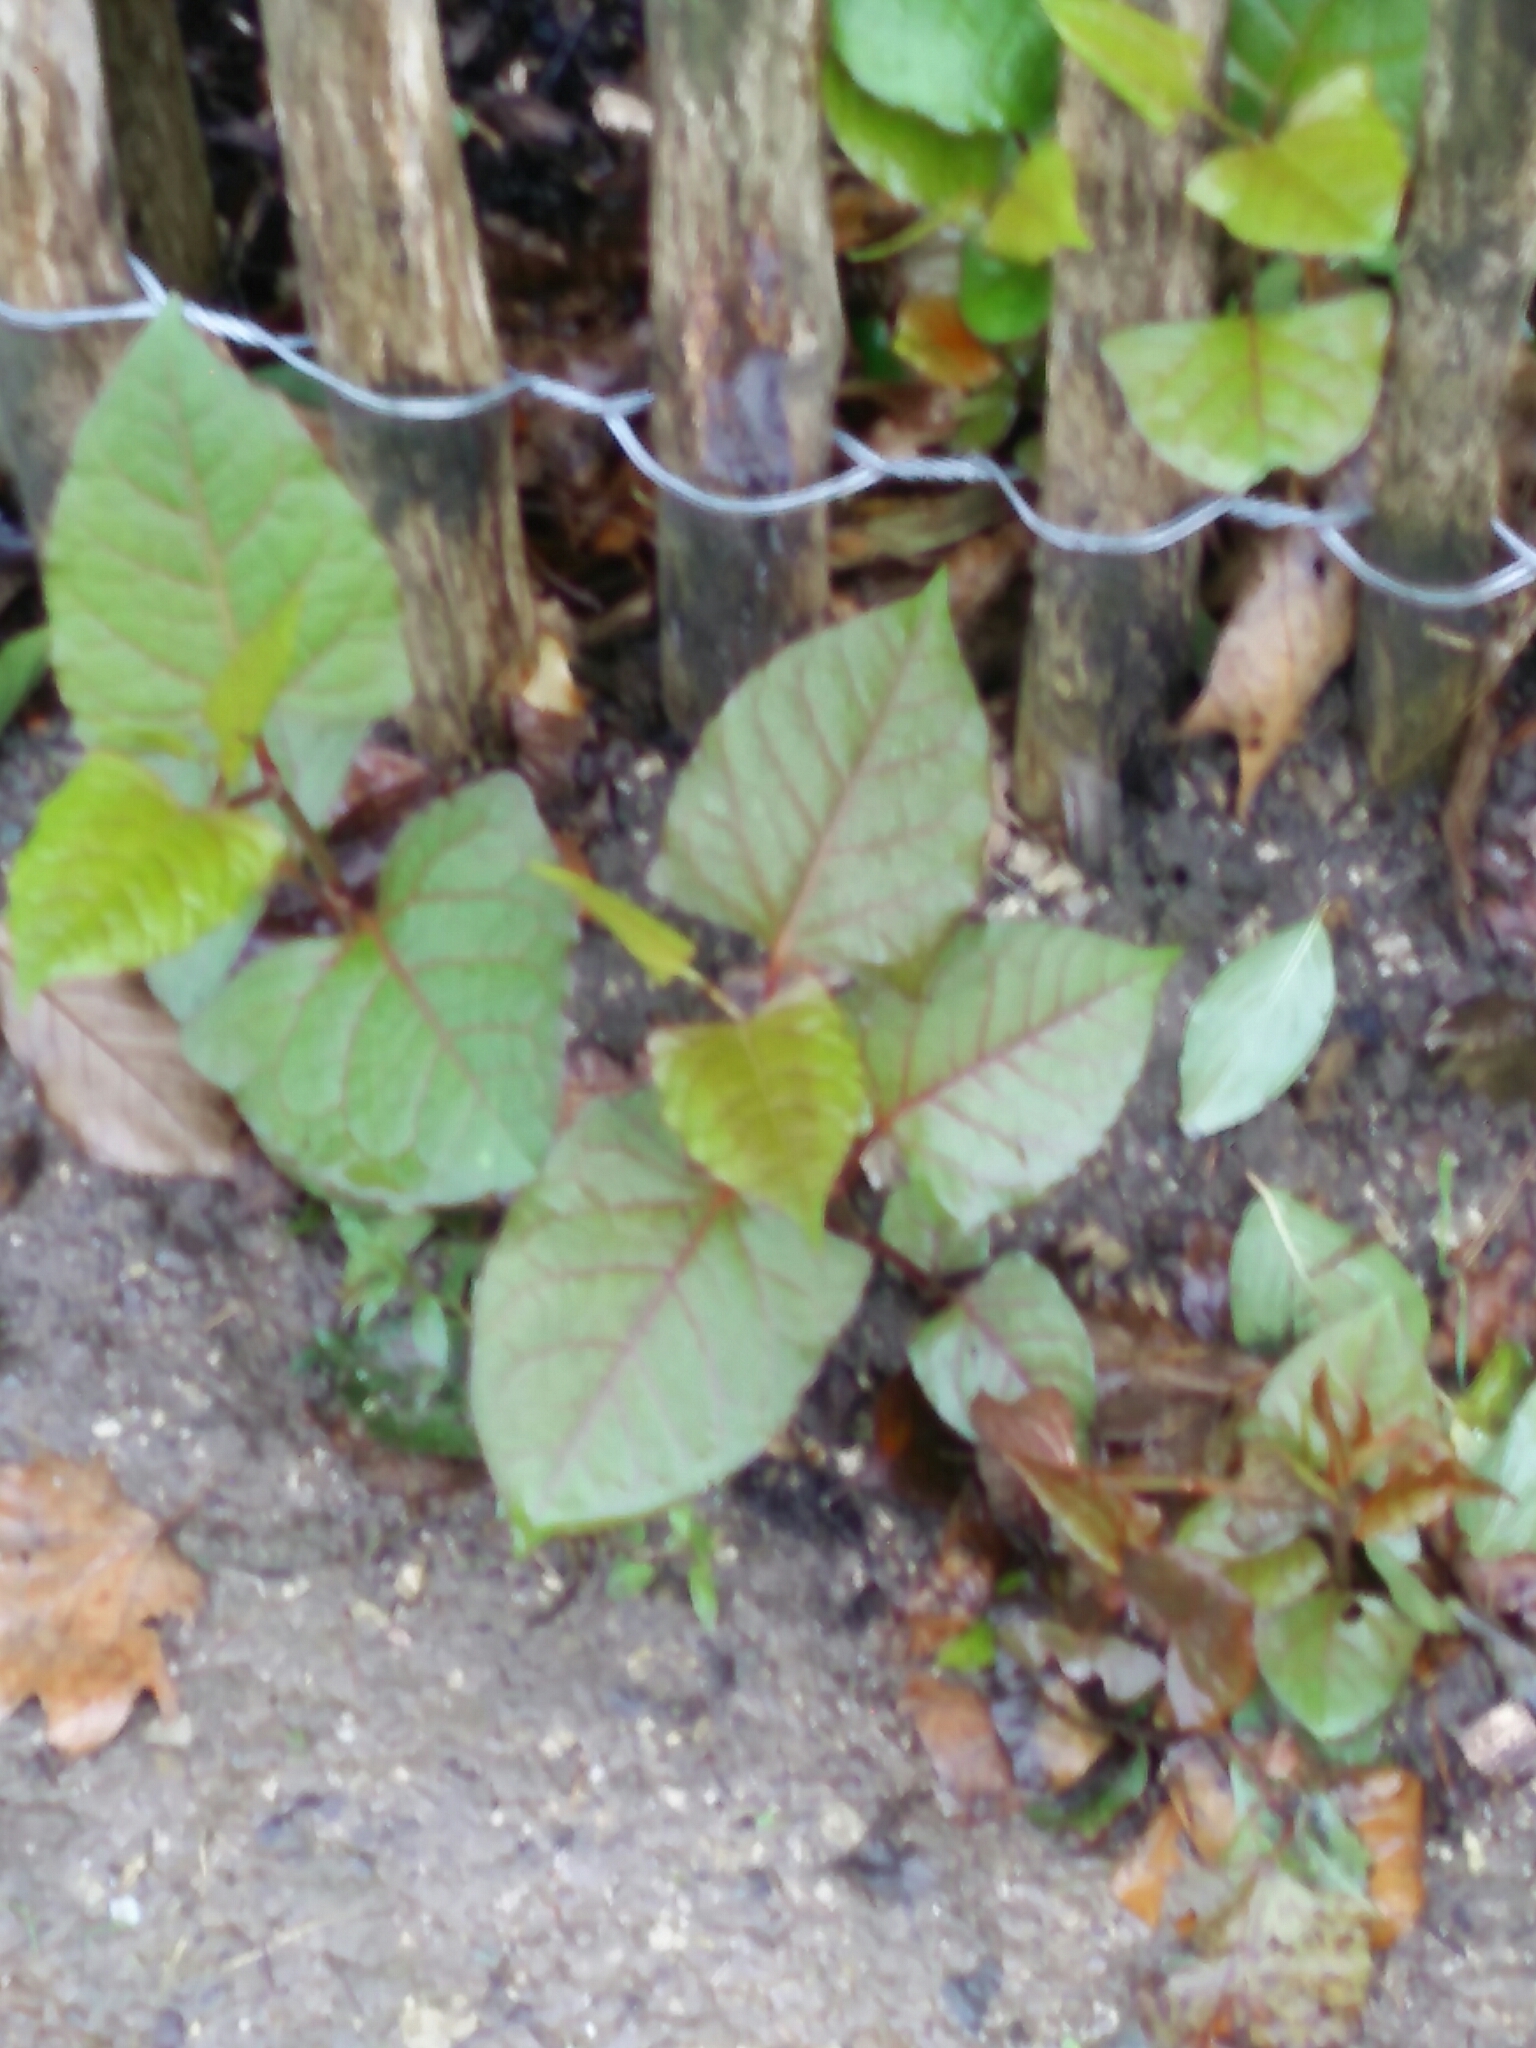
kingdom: Plantae
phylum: Tracheophyta
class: Magnoliopsida
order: Caryophyllales
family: Polygonaceae
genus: Reynoutria
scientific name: Reynoutria japonica
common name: Japanese knotweed
